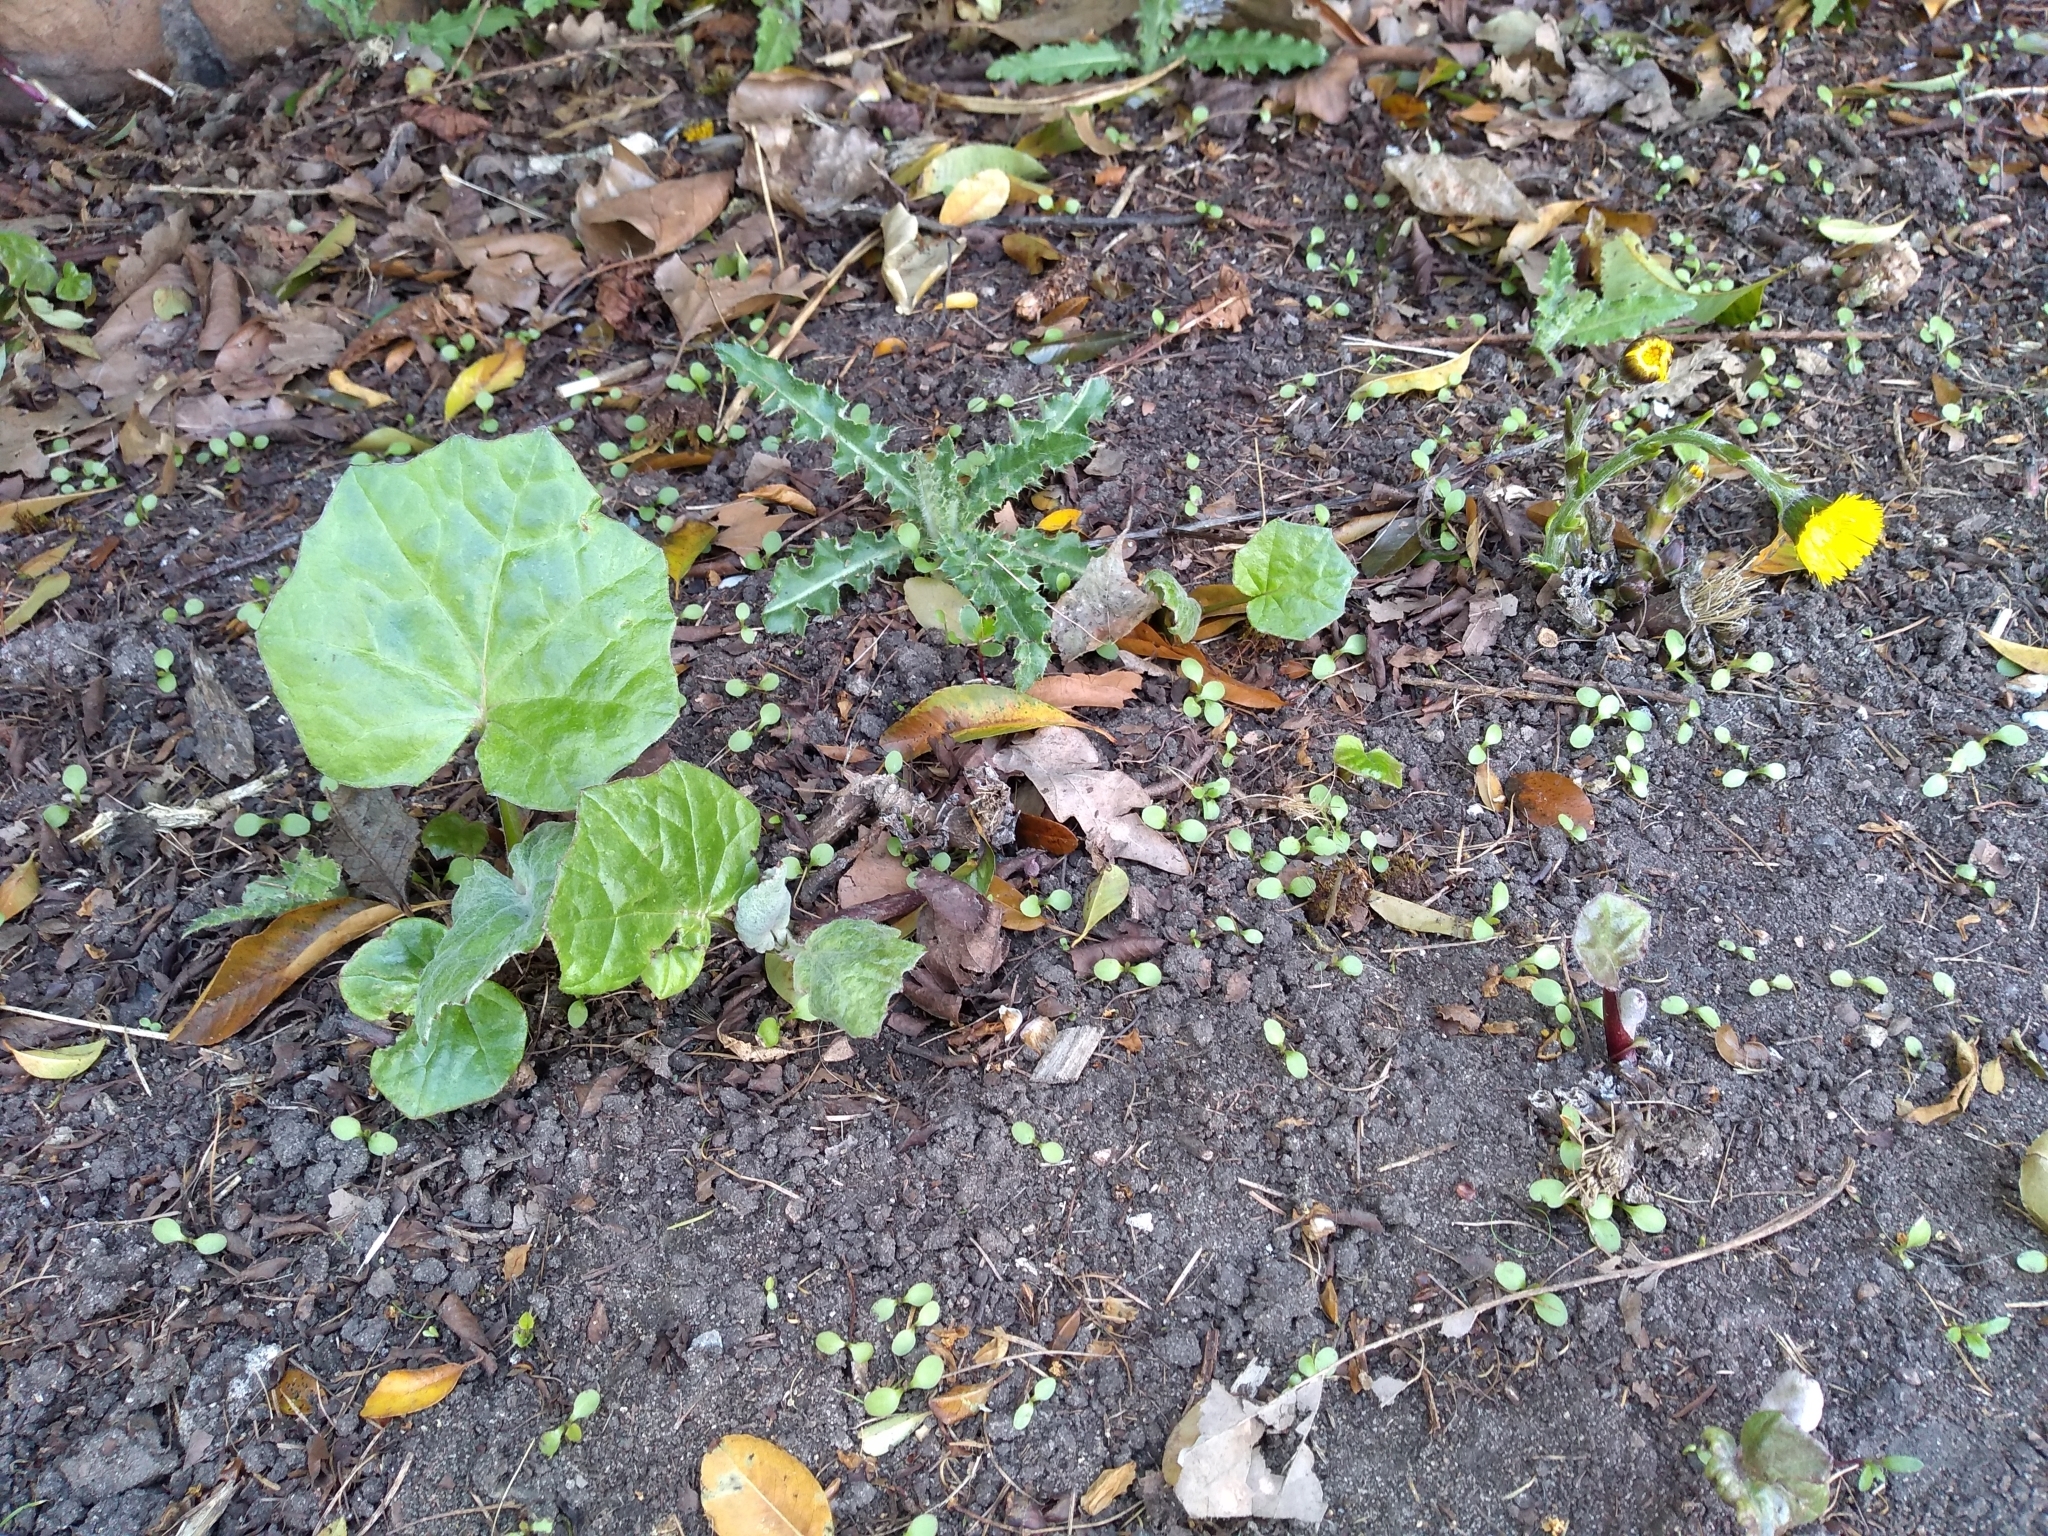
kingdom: Plantae
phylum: Tracheophyta
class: Magnoliopsida
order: Asterales
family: Asteraceae
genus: Tussilago
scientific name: Tussilago farfara
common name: Coltsfoot
